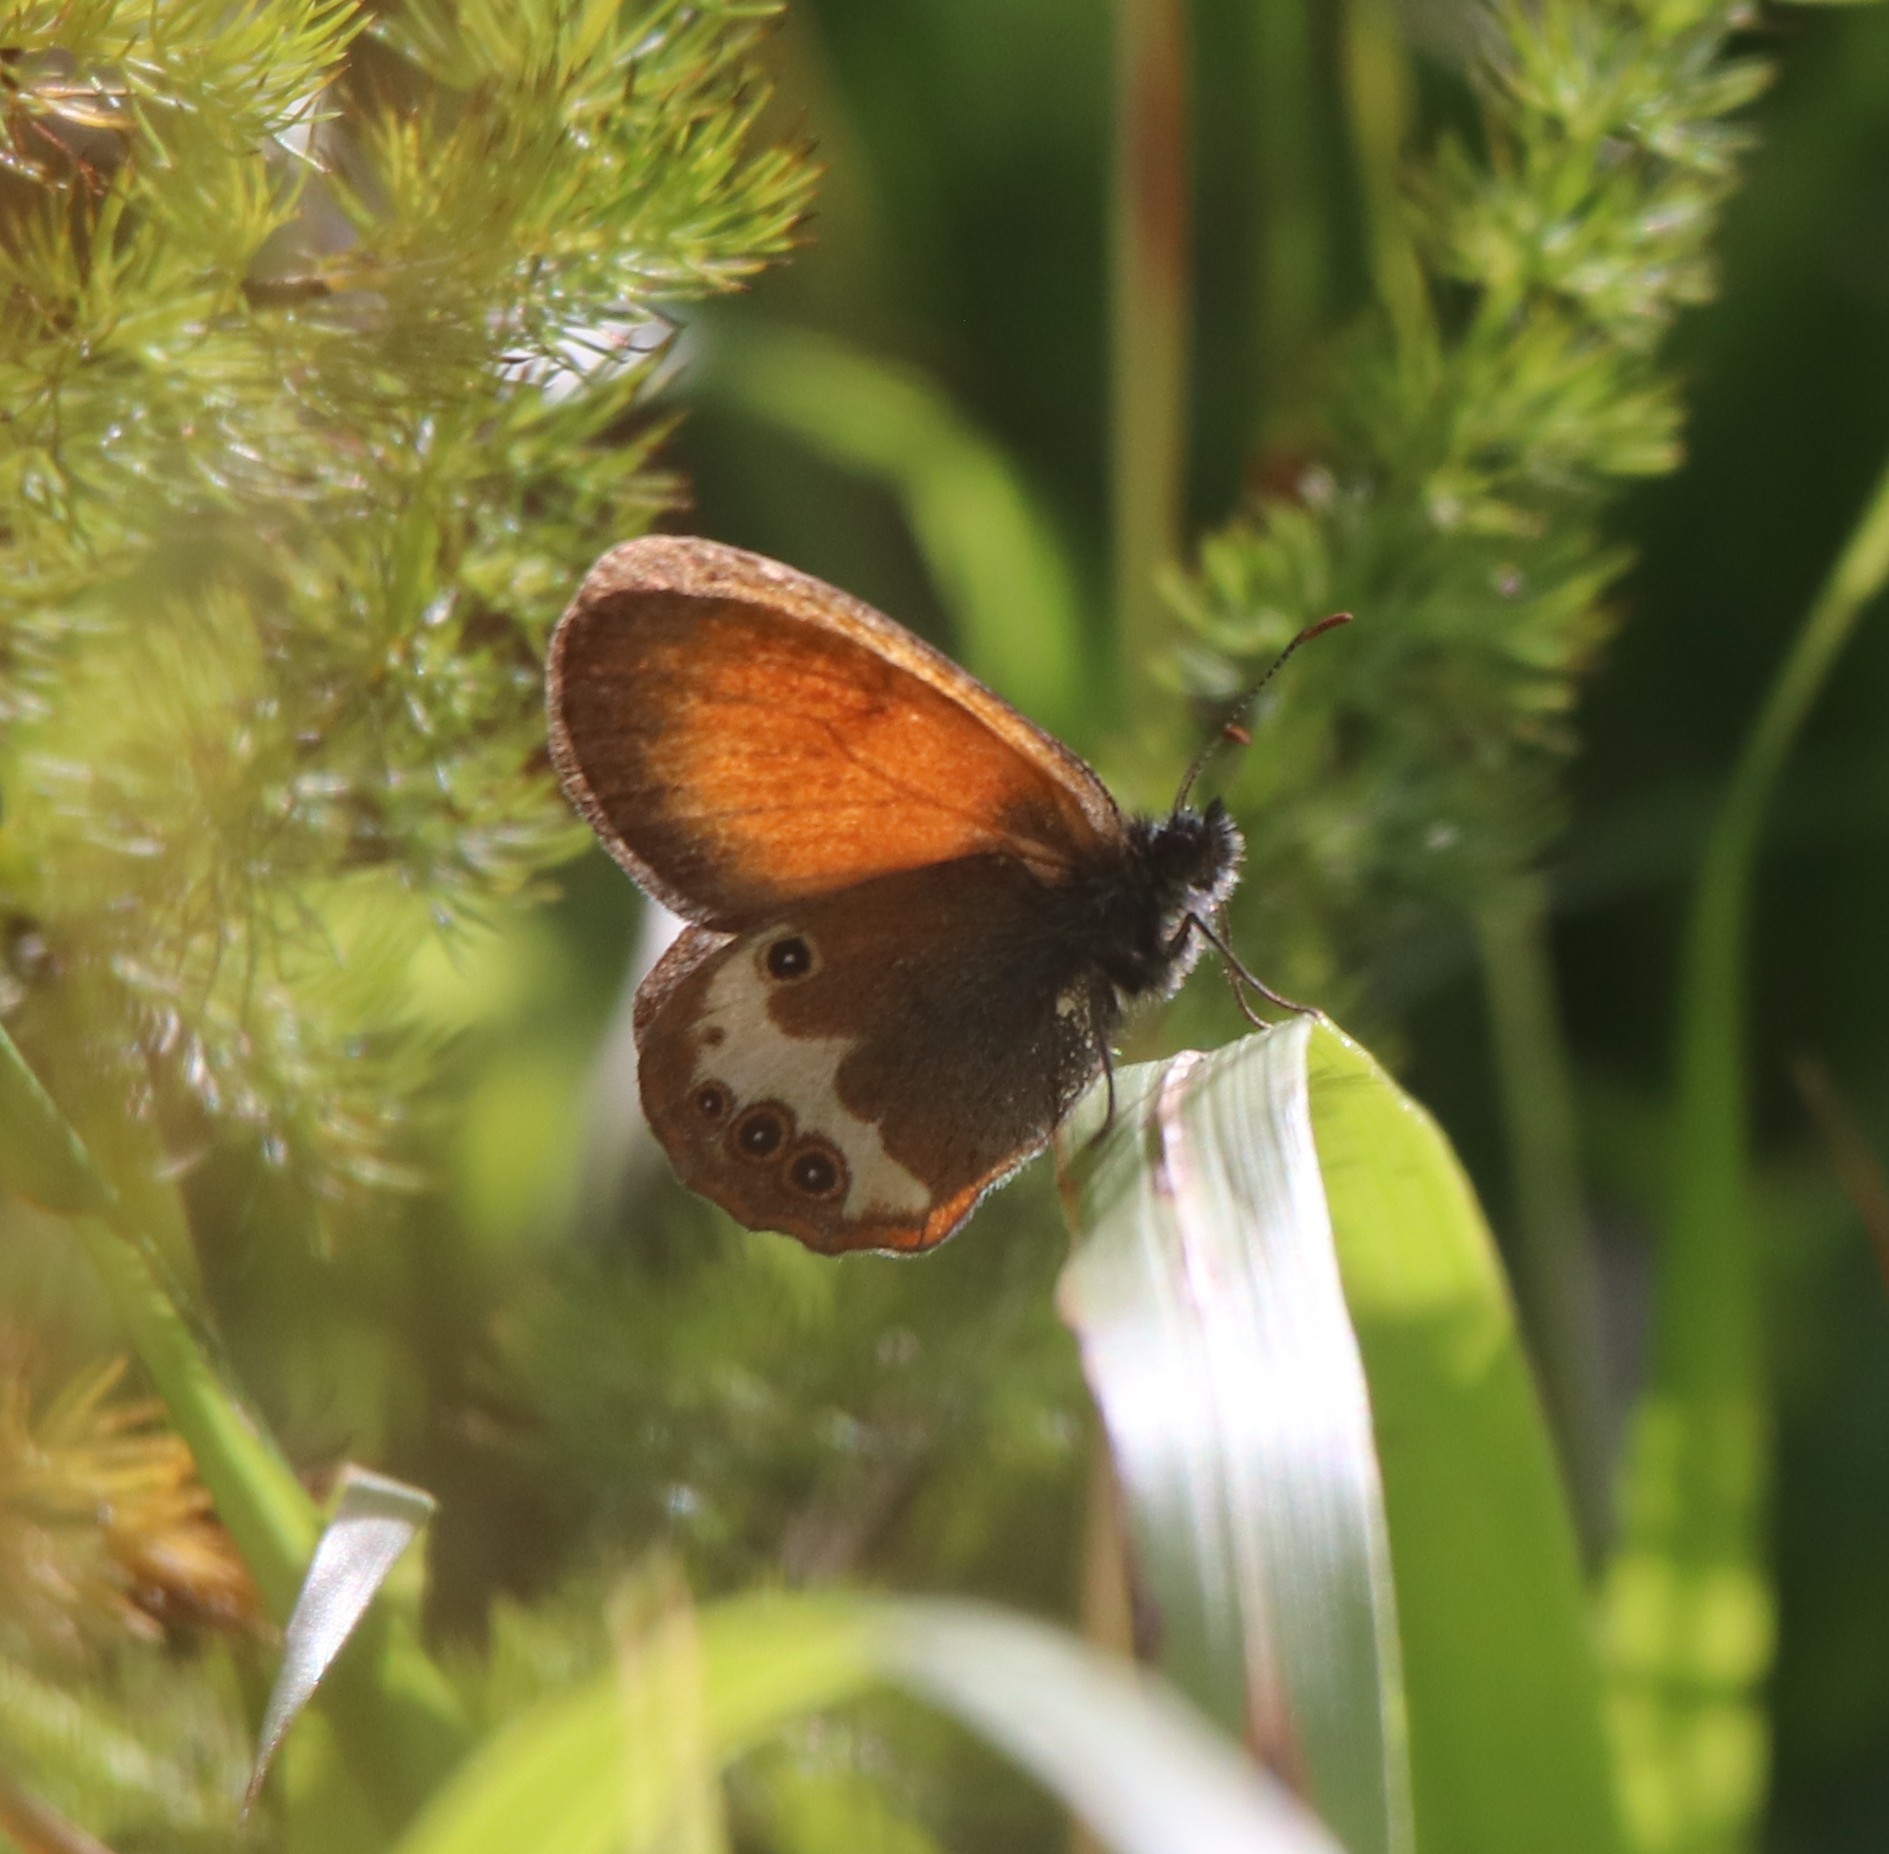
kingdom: Animalia
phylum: Arthropoda
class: Insecta
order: Lepidoptera
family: Nymphalidae
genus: Coenonympha
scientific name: Coenonympha arcania
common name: Pearly heath
